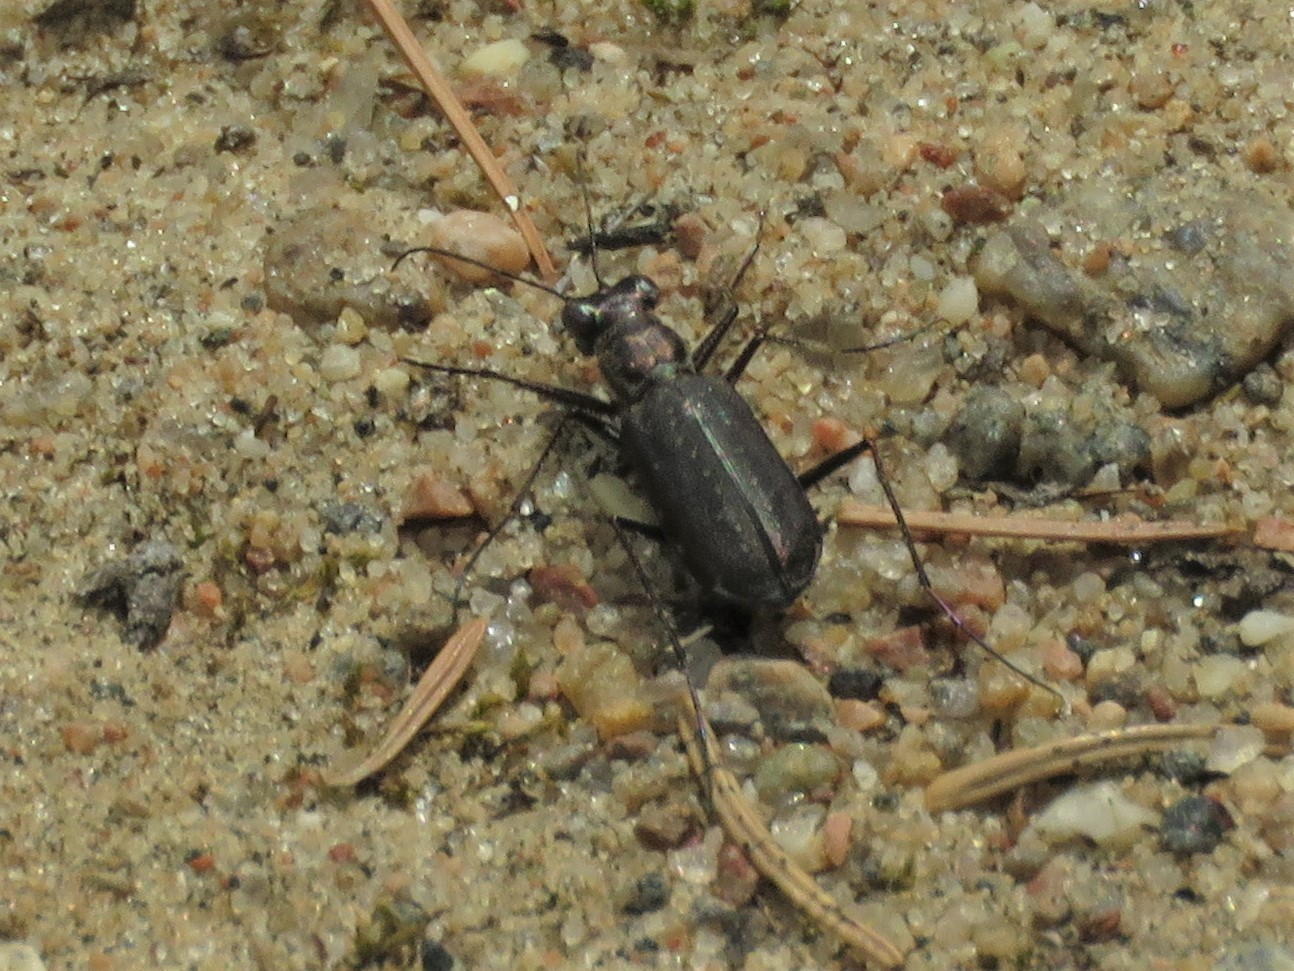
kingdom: Animalia
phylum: Arthropoda
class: Insecta
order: Coleoptera
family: Carabidae
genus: Cicindela
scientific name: Cicindela punctulata
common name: Punctured tiger beetle
